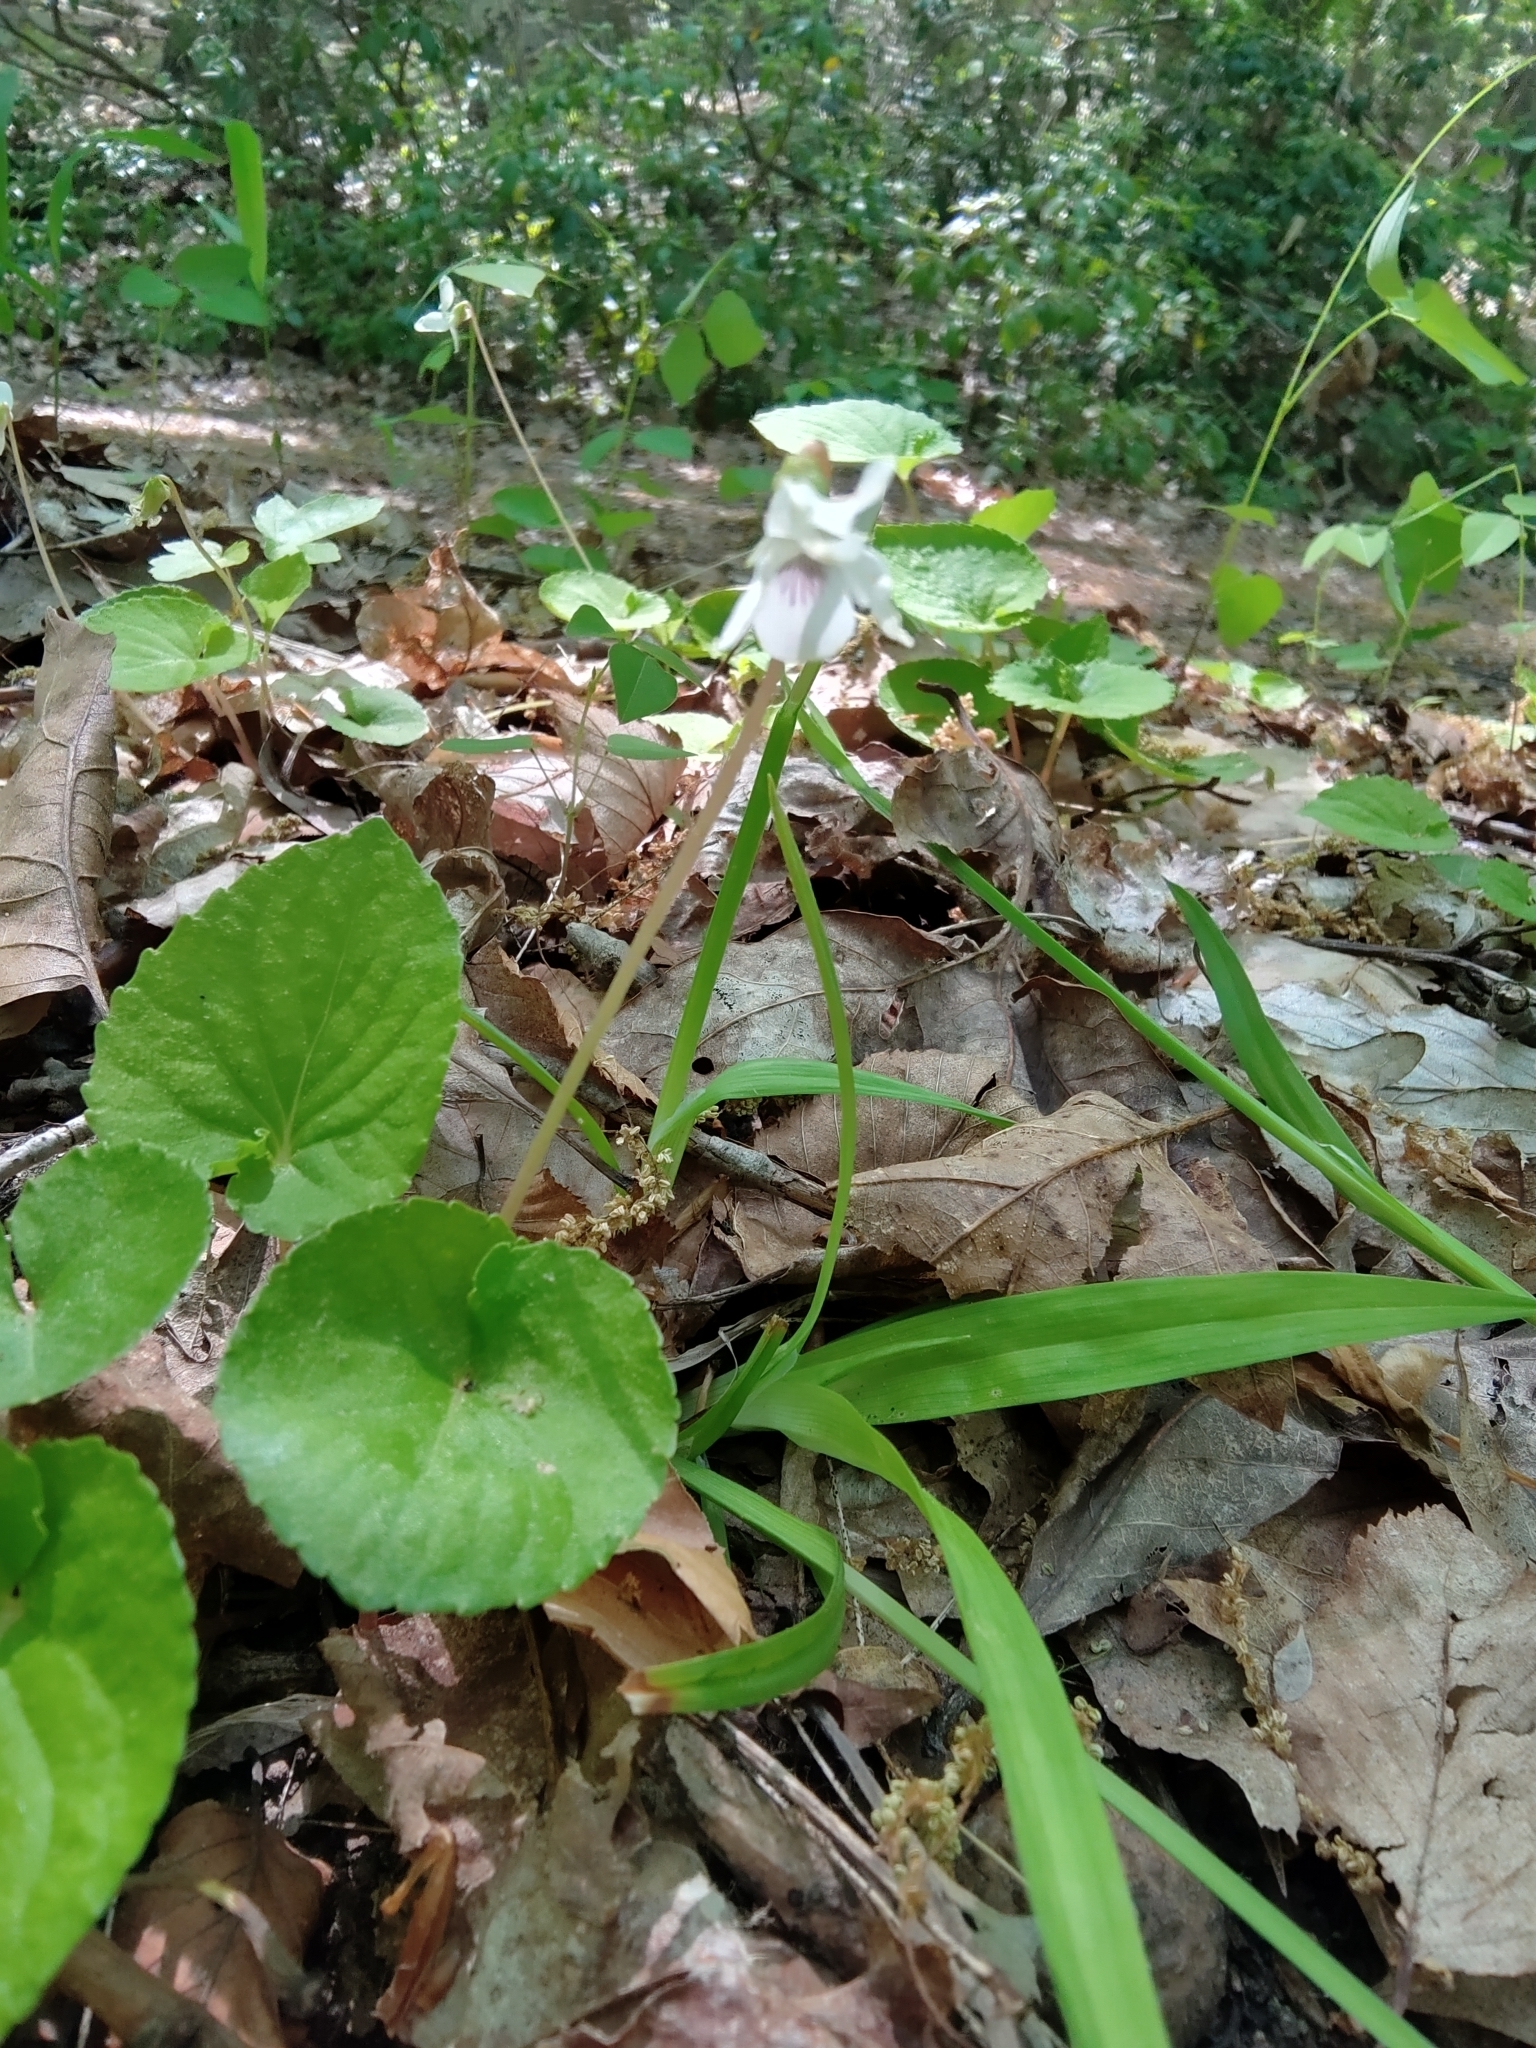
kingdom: Plantae
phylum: Tracheophyta
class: Magnoliopsida
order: Malpighiales
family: Violaceae
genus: Viola
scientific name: Viola minuscula
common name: Northern white violet
